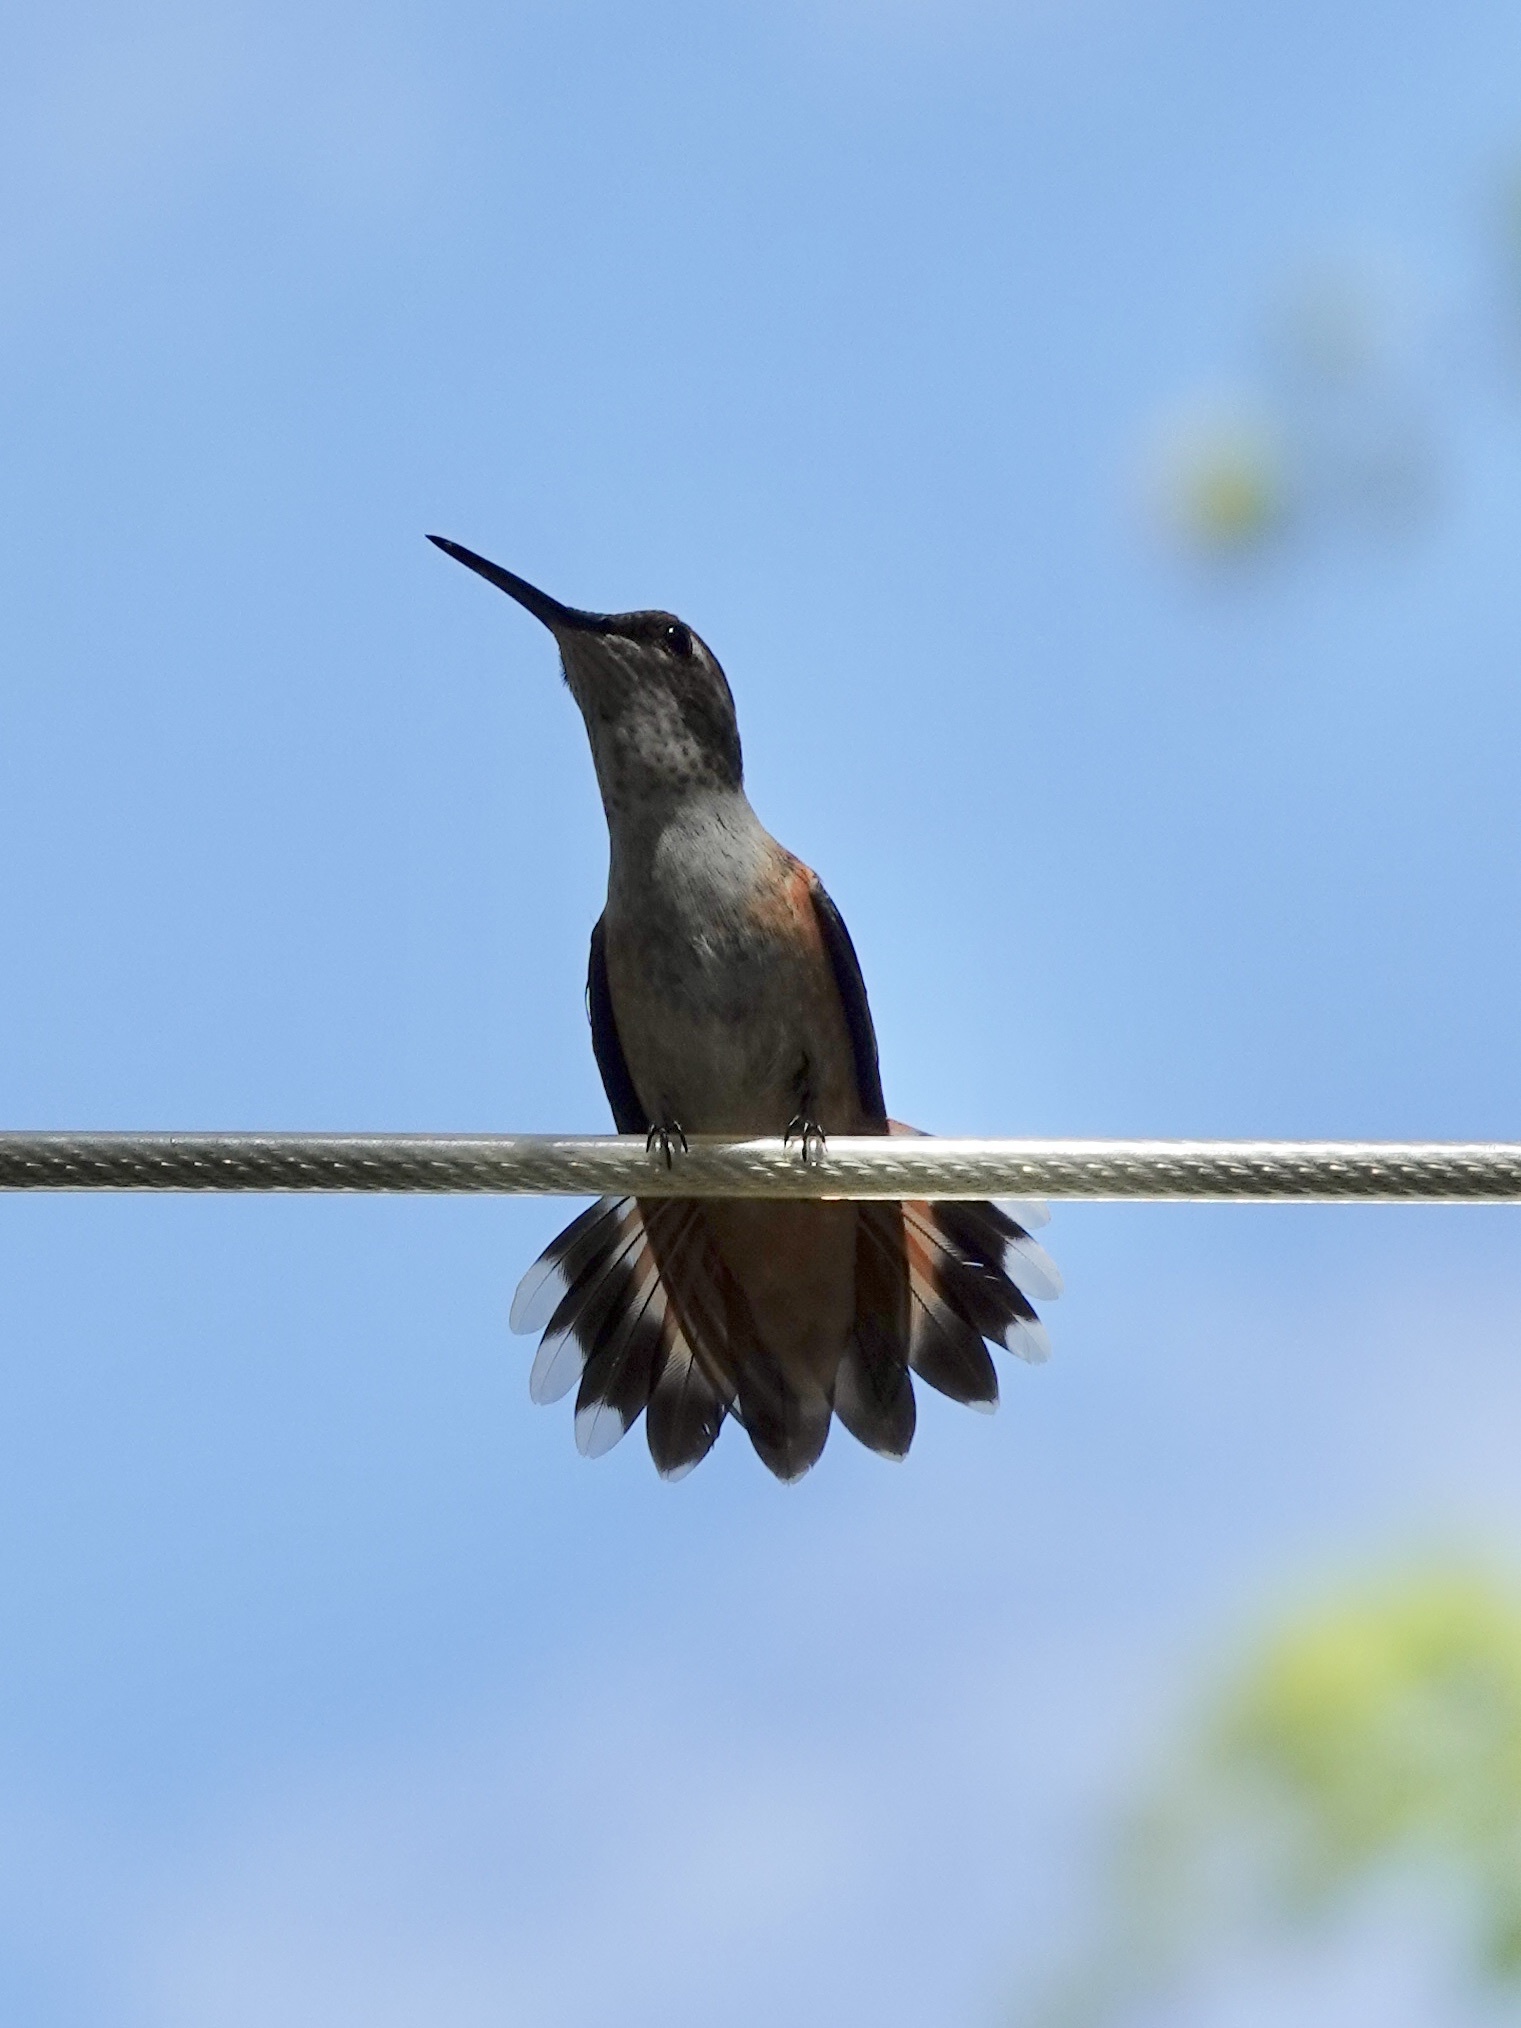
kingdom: Animalia
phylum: Chordata
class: Aves
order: Apodiformes
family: Trochilidae
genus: Selasphorus
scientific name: Selasphorus rufus
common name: Rufous hummingbird
